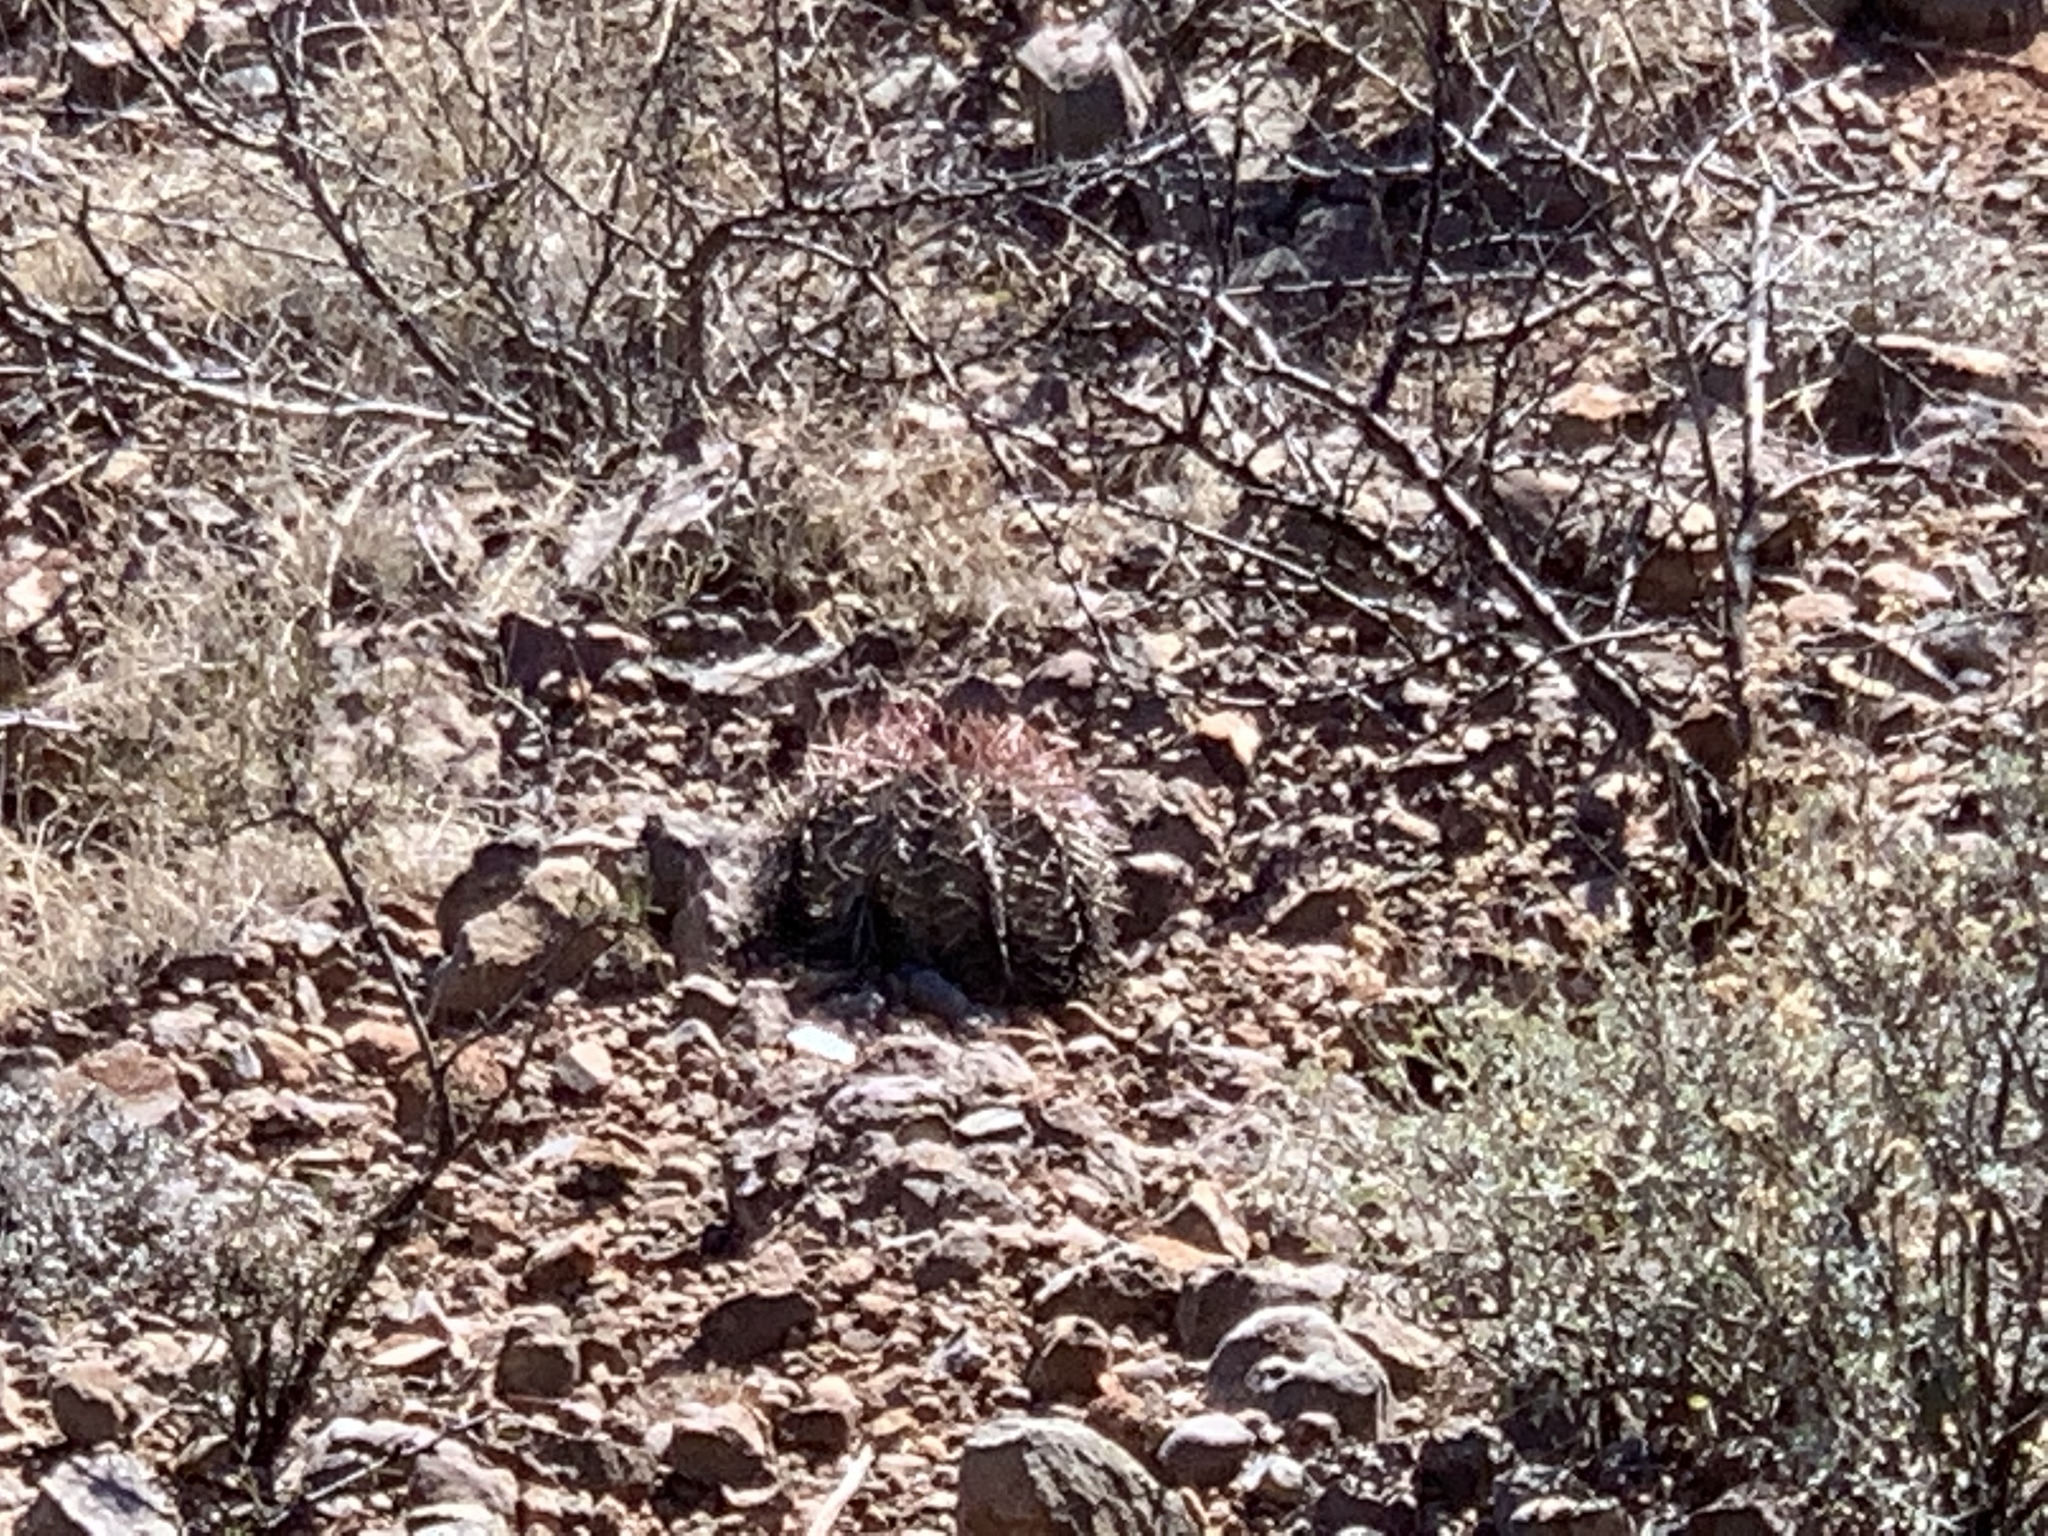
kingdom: Plantae
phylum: Tracheophyta
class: Magnoliopsida
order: Caryophyllales
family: Cactaceae
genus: Echinocactus
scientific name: Echinocactus horizonthalonius
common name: Devilshead
